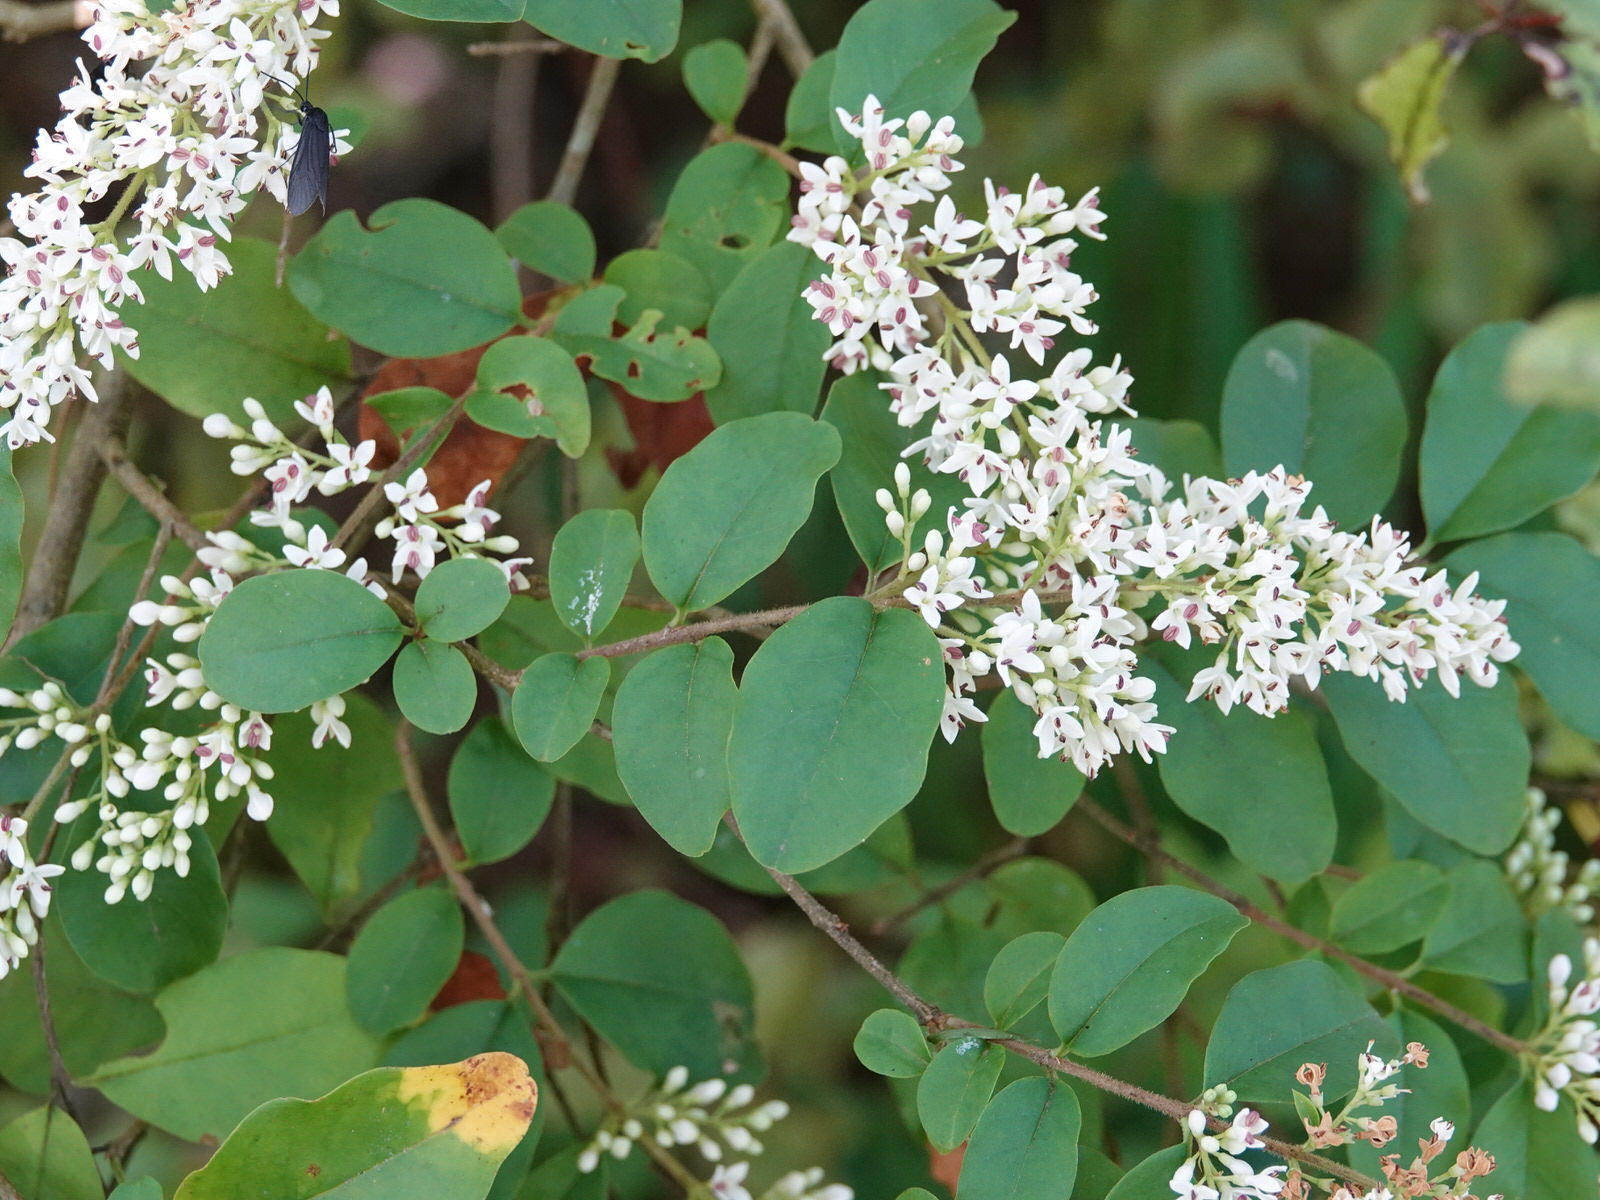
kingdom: Plantae
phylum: Tracheophyta
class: Magnoliopsida
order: Lamiales
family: Oleaceae
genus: Ligustrum
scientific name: Ligustrum sinense
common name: Chinese privet
